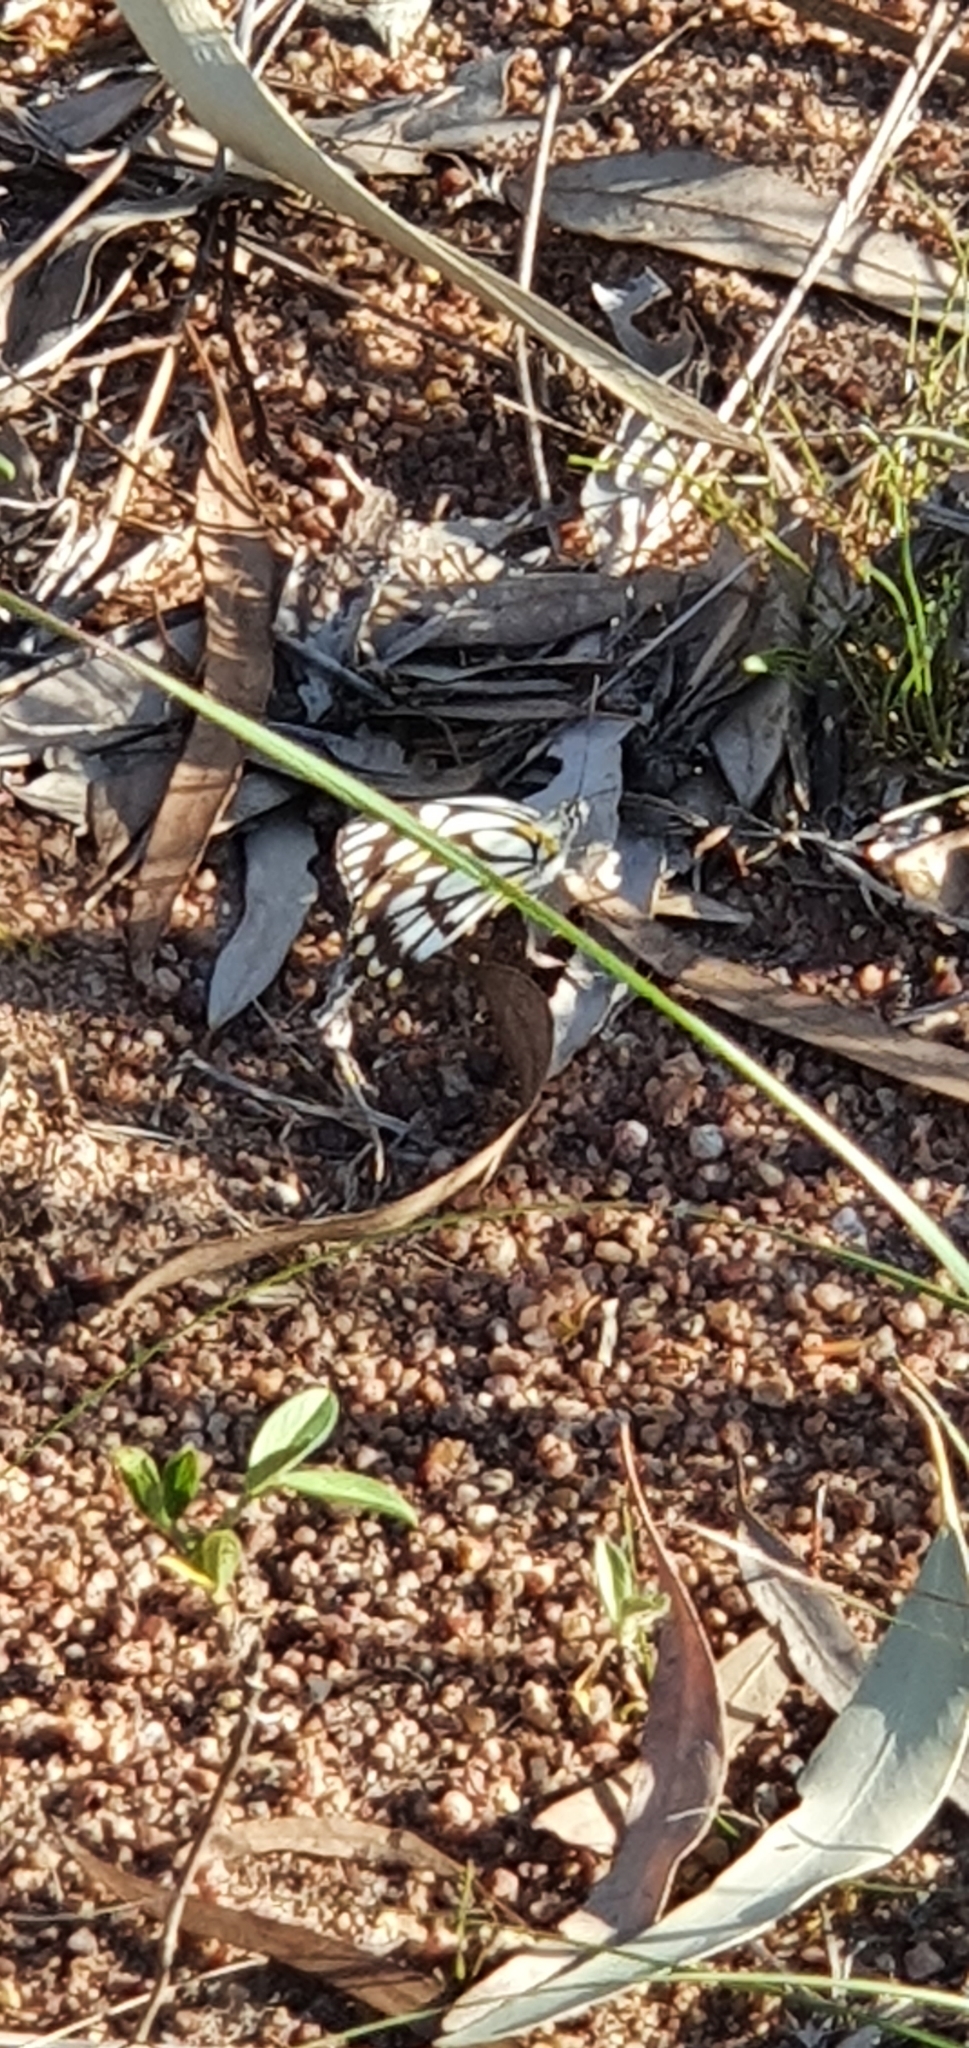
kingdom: Animalia
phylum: Arthropoda
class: Insecta
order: Lepidoptera
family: Pieridae
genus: Belenois
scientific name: Belenois java
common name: Caper white
